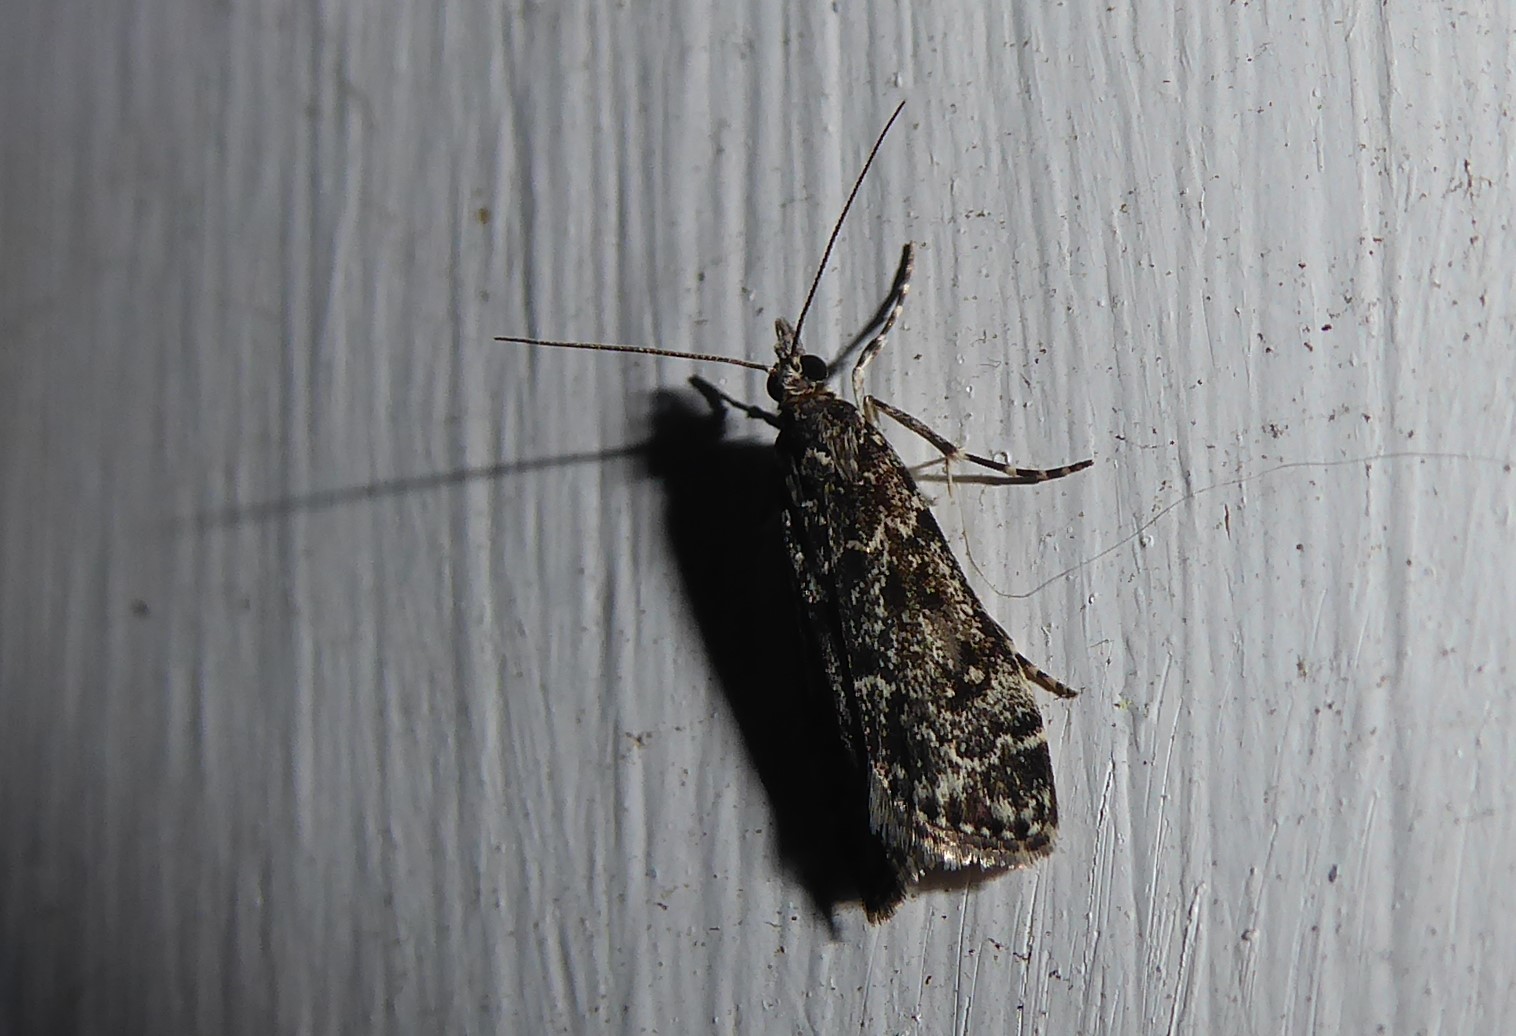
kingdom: Animalia
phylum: Arthropoda
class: Insecta
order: Lepidoptera
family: Crambidae
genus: Eudonia
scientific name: Eudonia philerga
